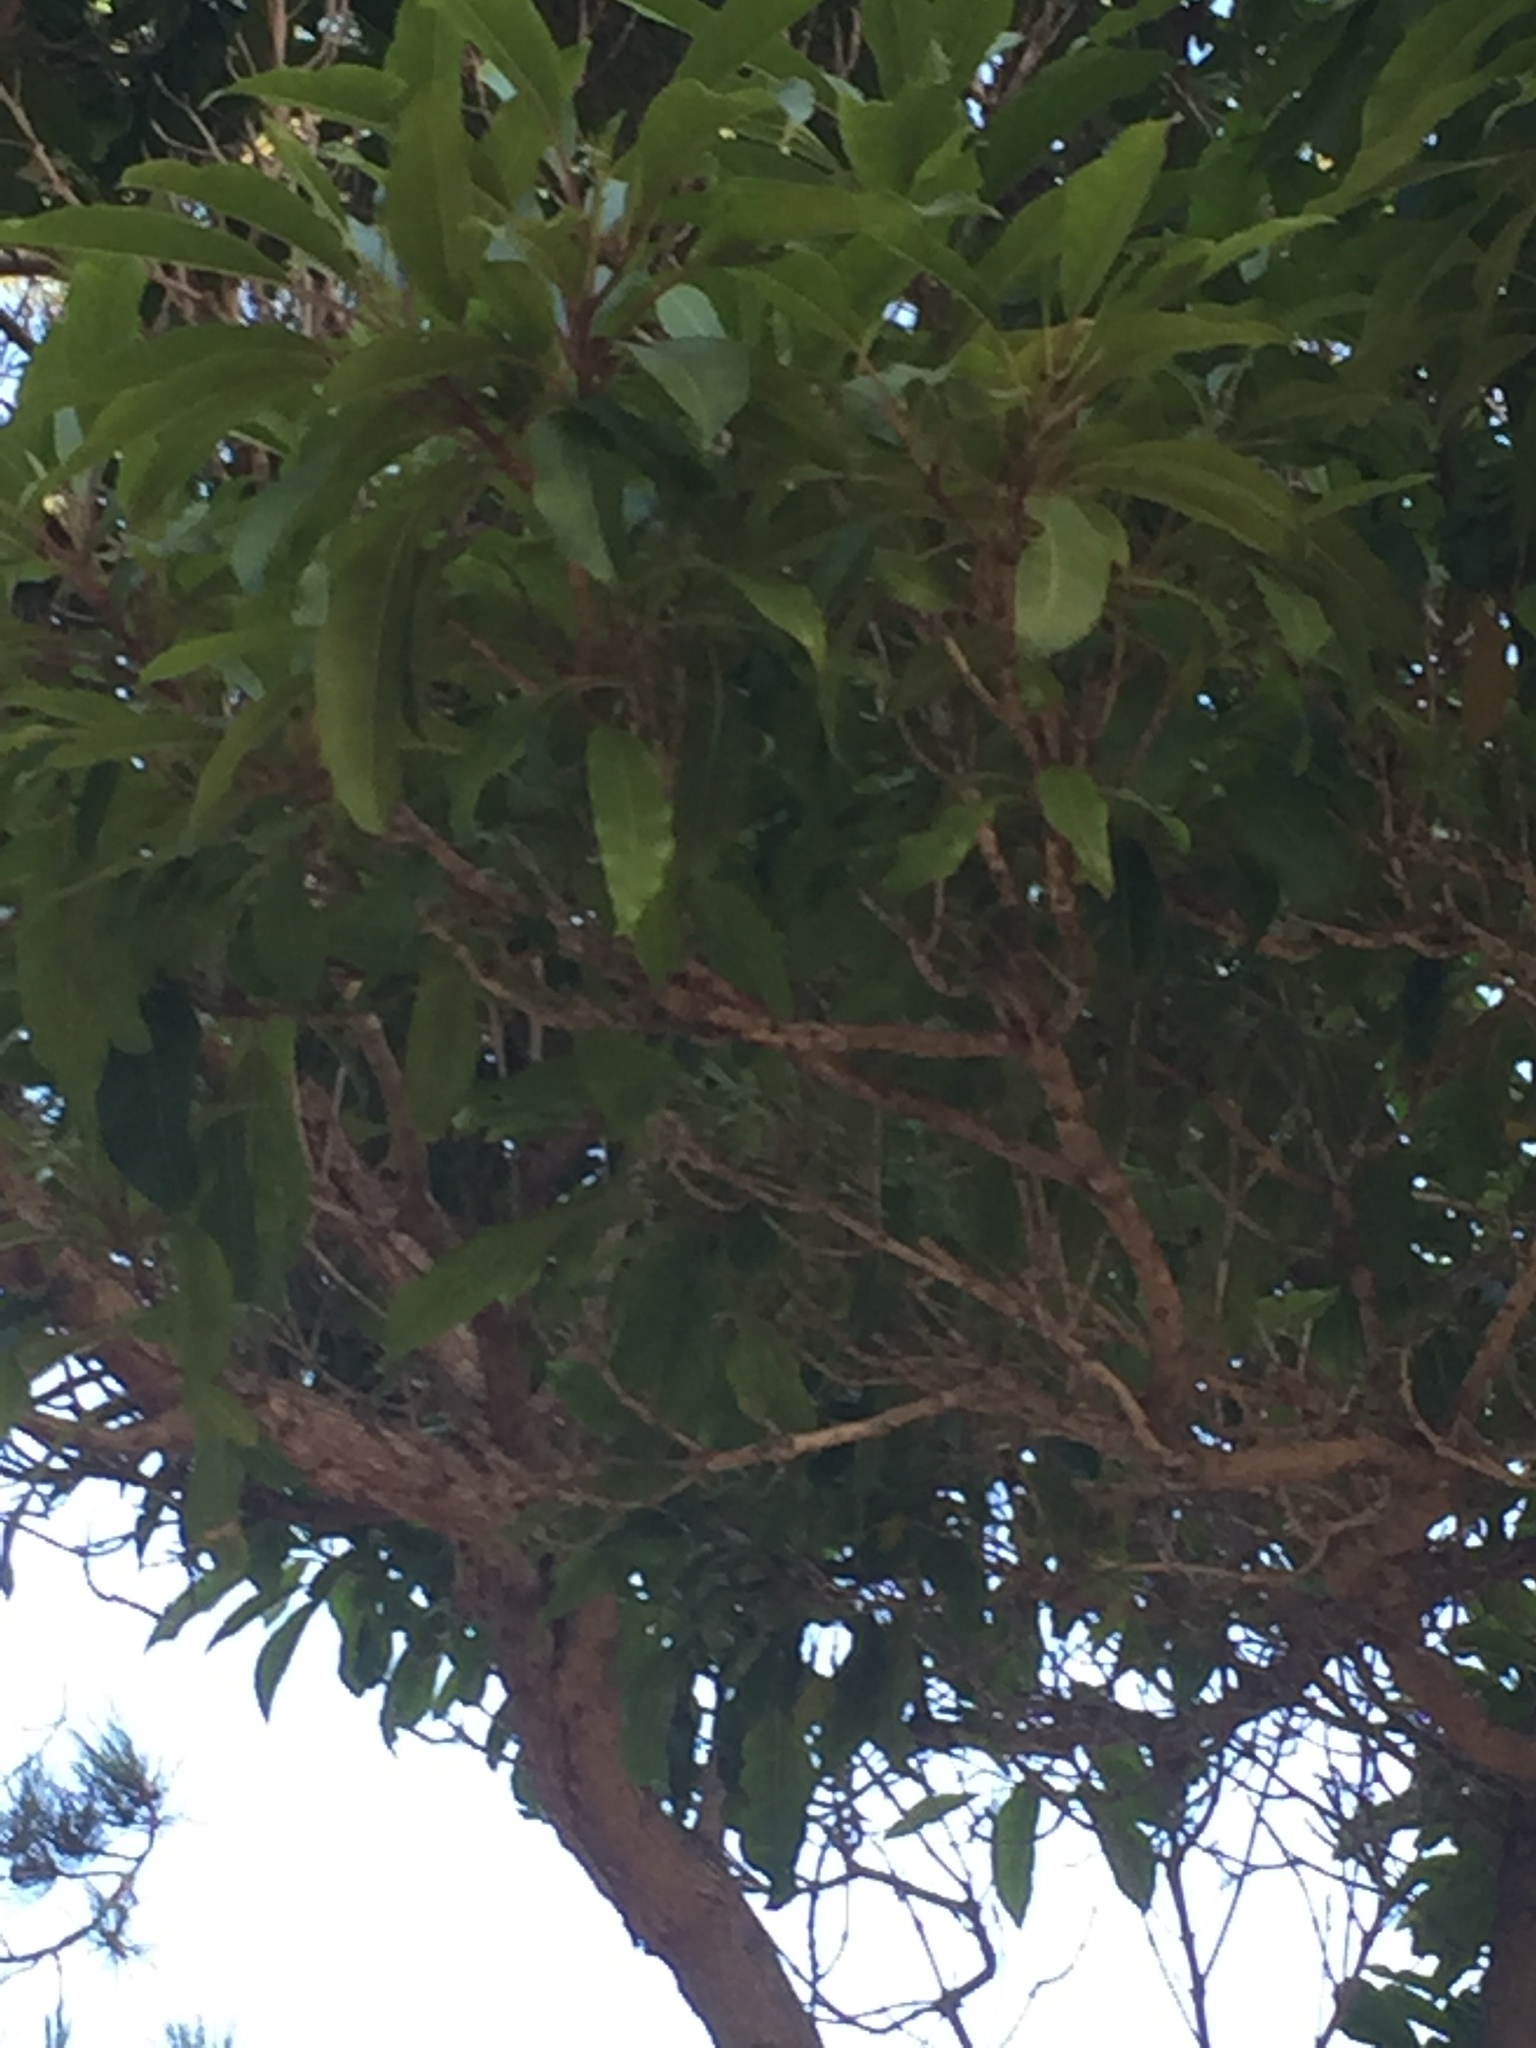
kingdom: Plantae
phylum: Tracheophyta
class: Magnoliopsida
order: Lamiales
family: Stilbaceae
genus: Nuxia
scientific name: Nuxia floribunda
